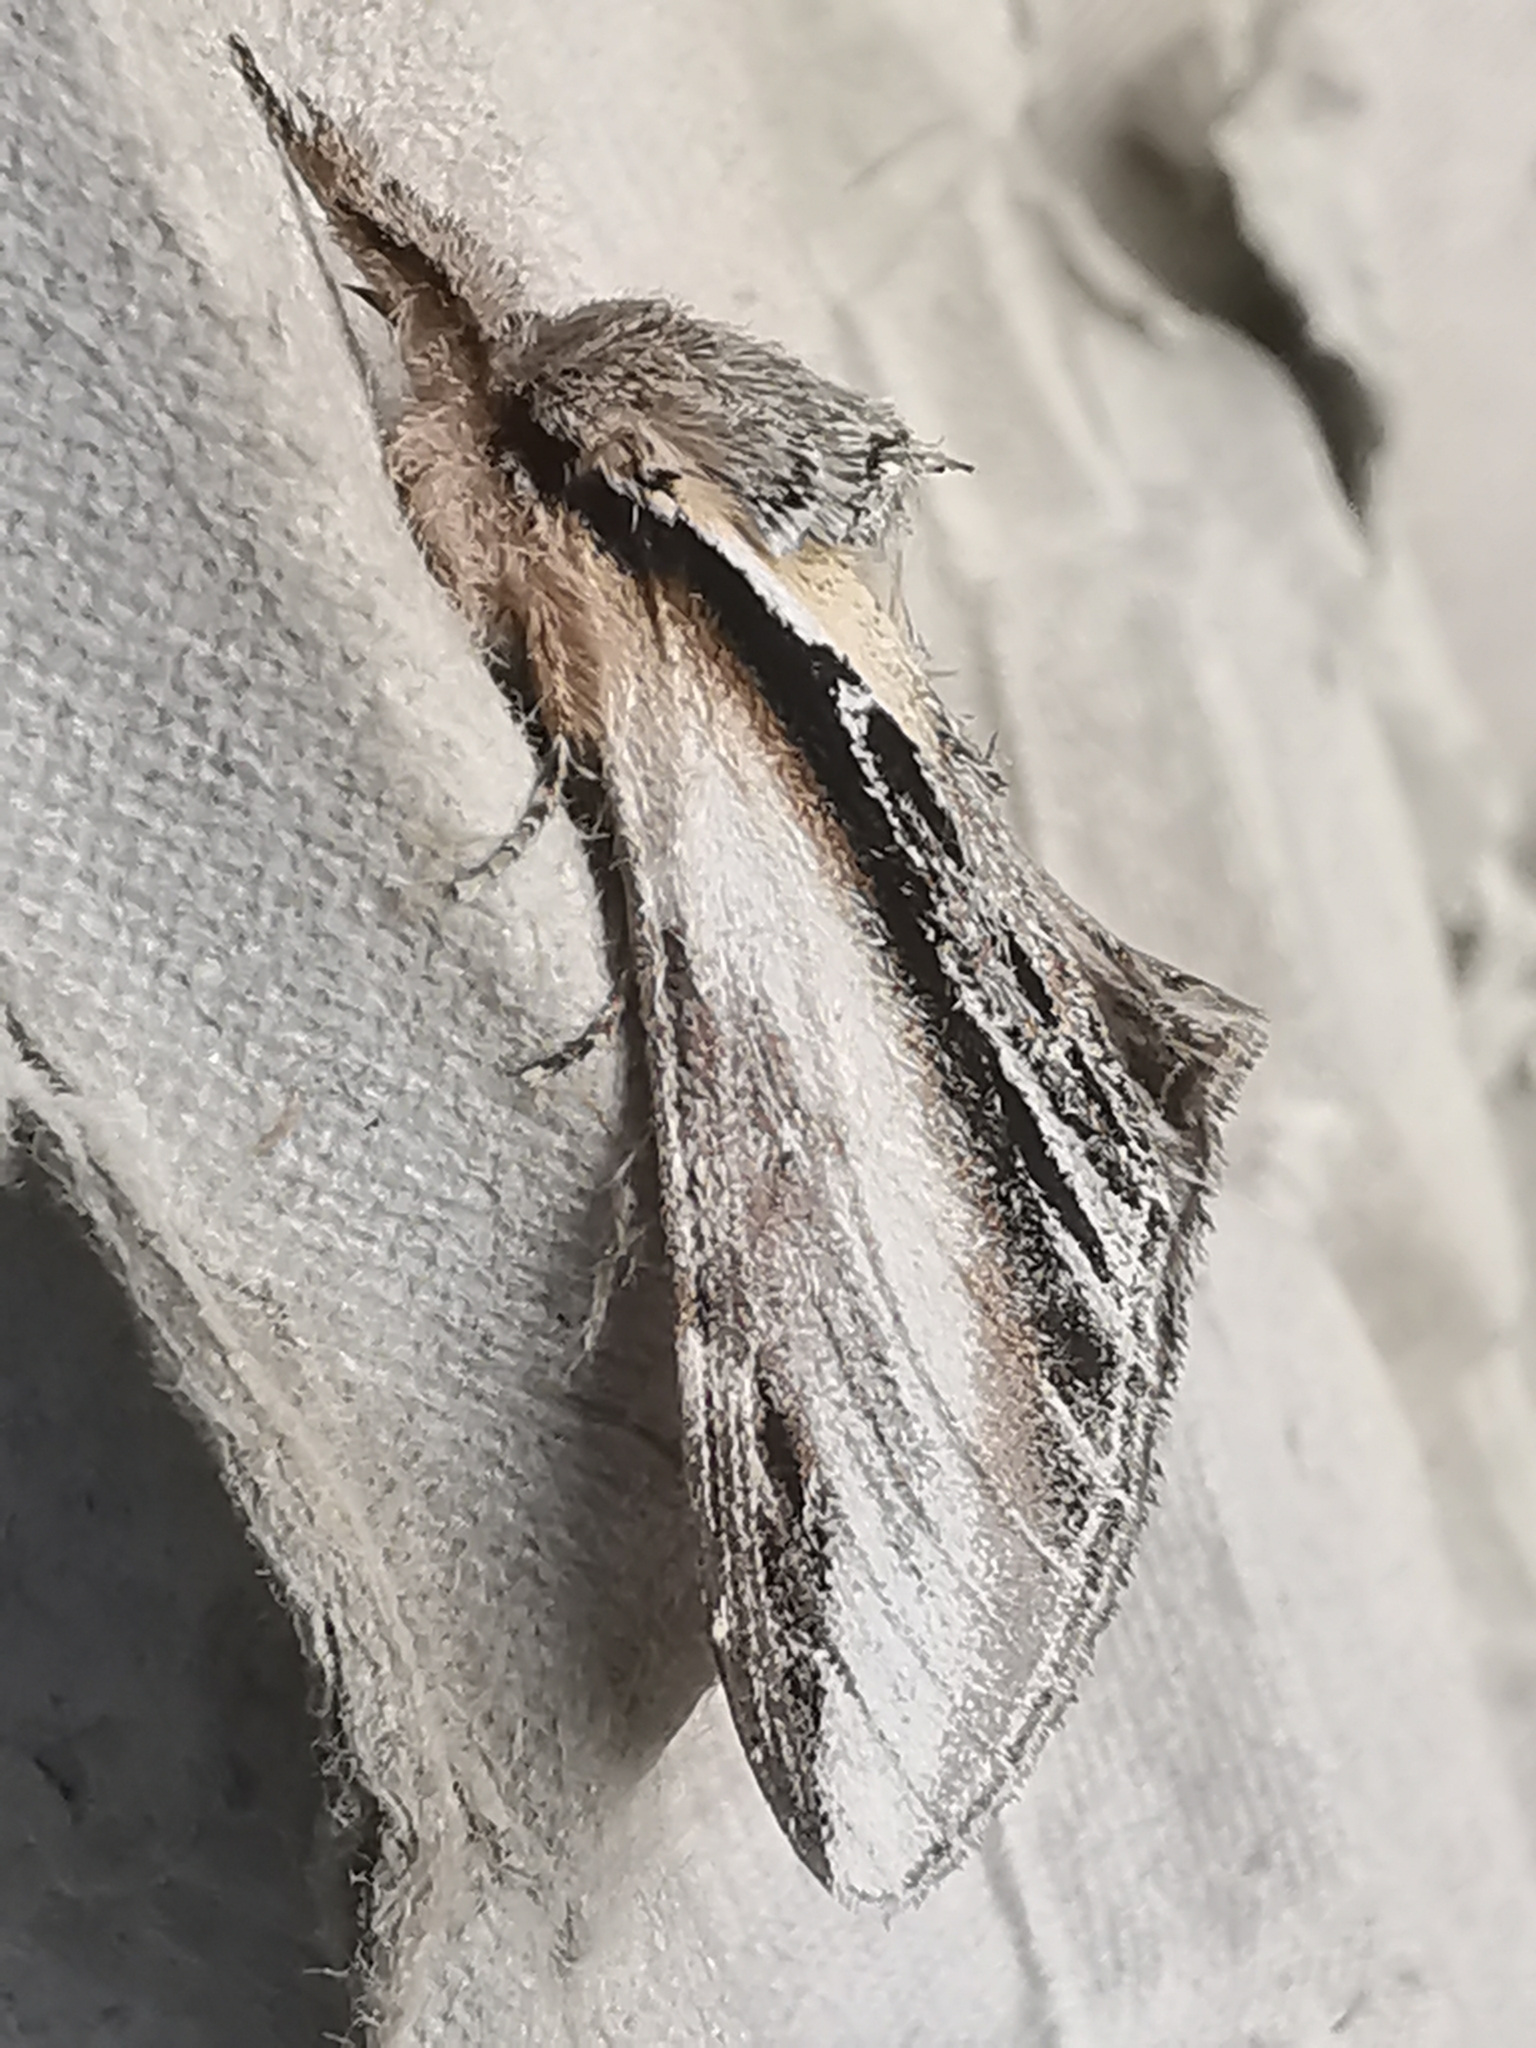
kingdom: Animalia
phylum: Arthropoda
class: Insecta
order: Lepidoptera
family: Notodontidae
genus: Pheosia
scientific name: Pheosia tremula
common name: Swallow prominent
